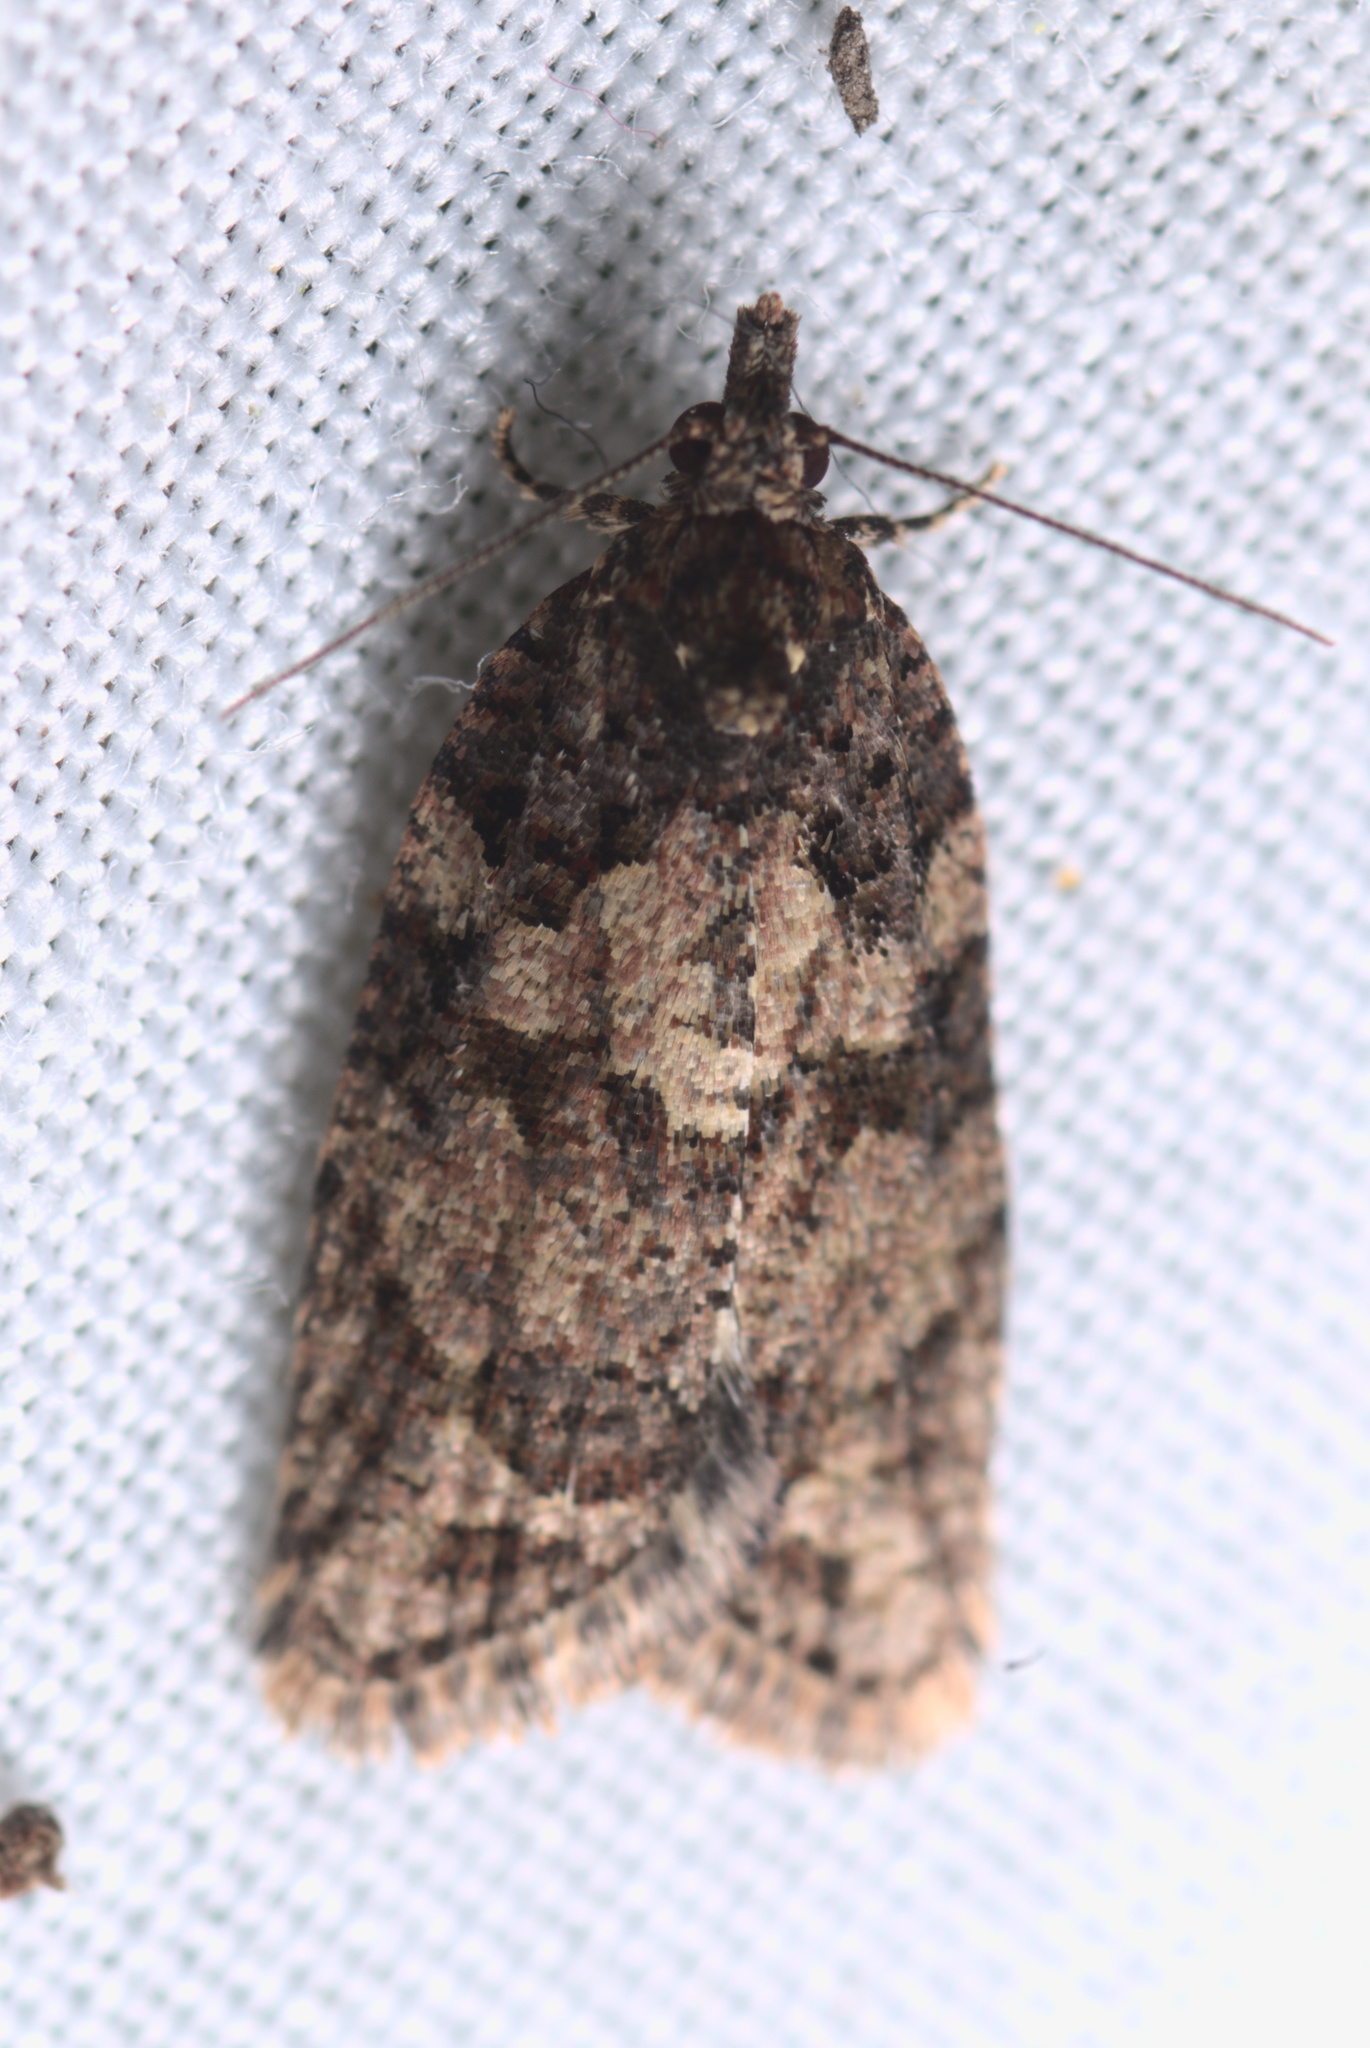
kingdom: Animalia
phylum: Arthropoda
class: Insecta
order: Lepidoptera
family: Tortricidae
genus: Capua
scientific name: Capua intractana
